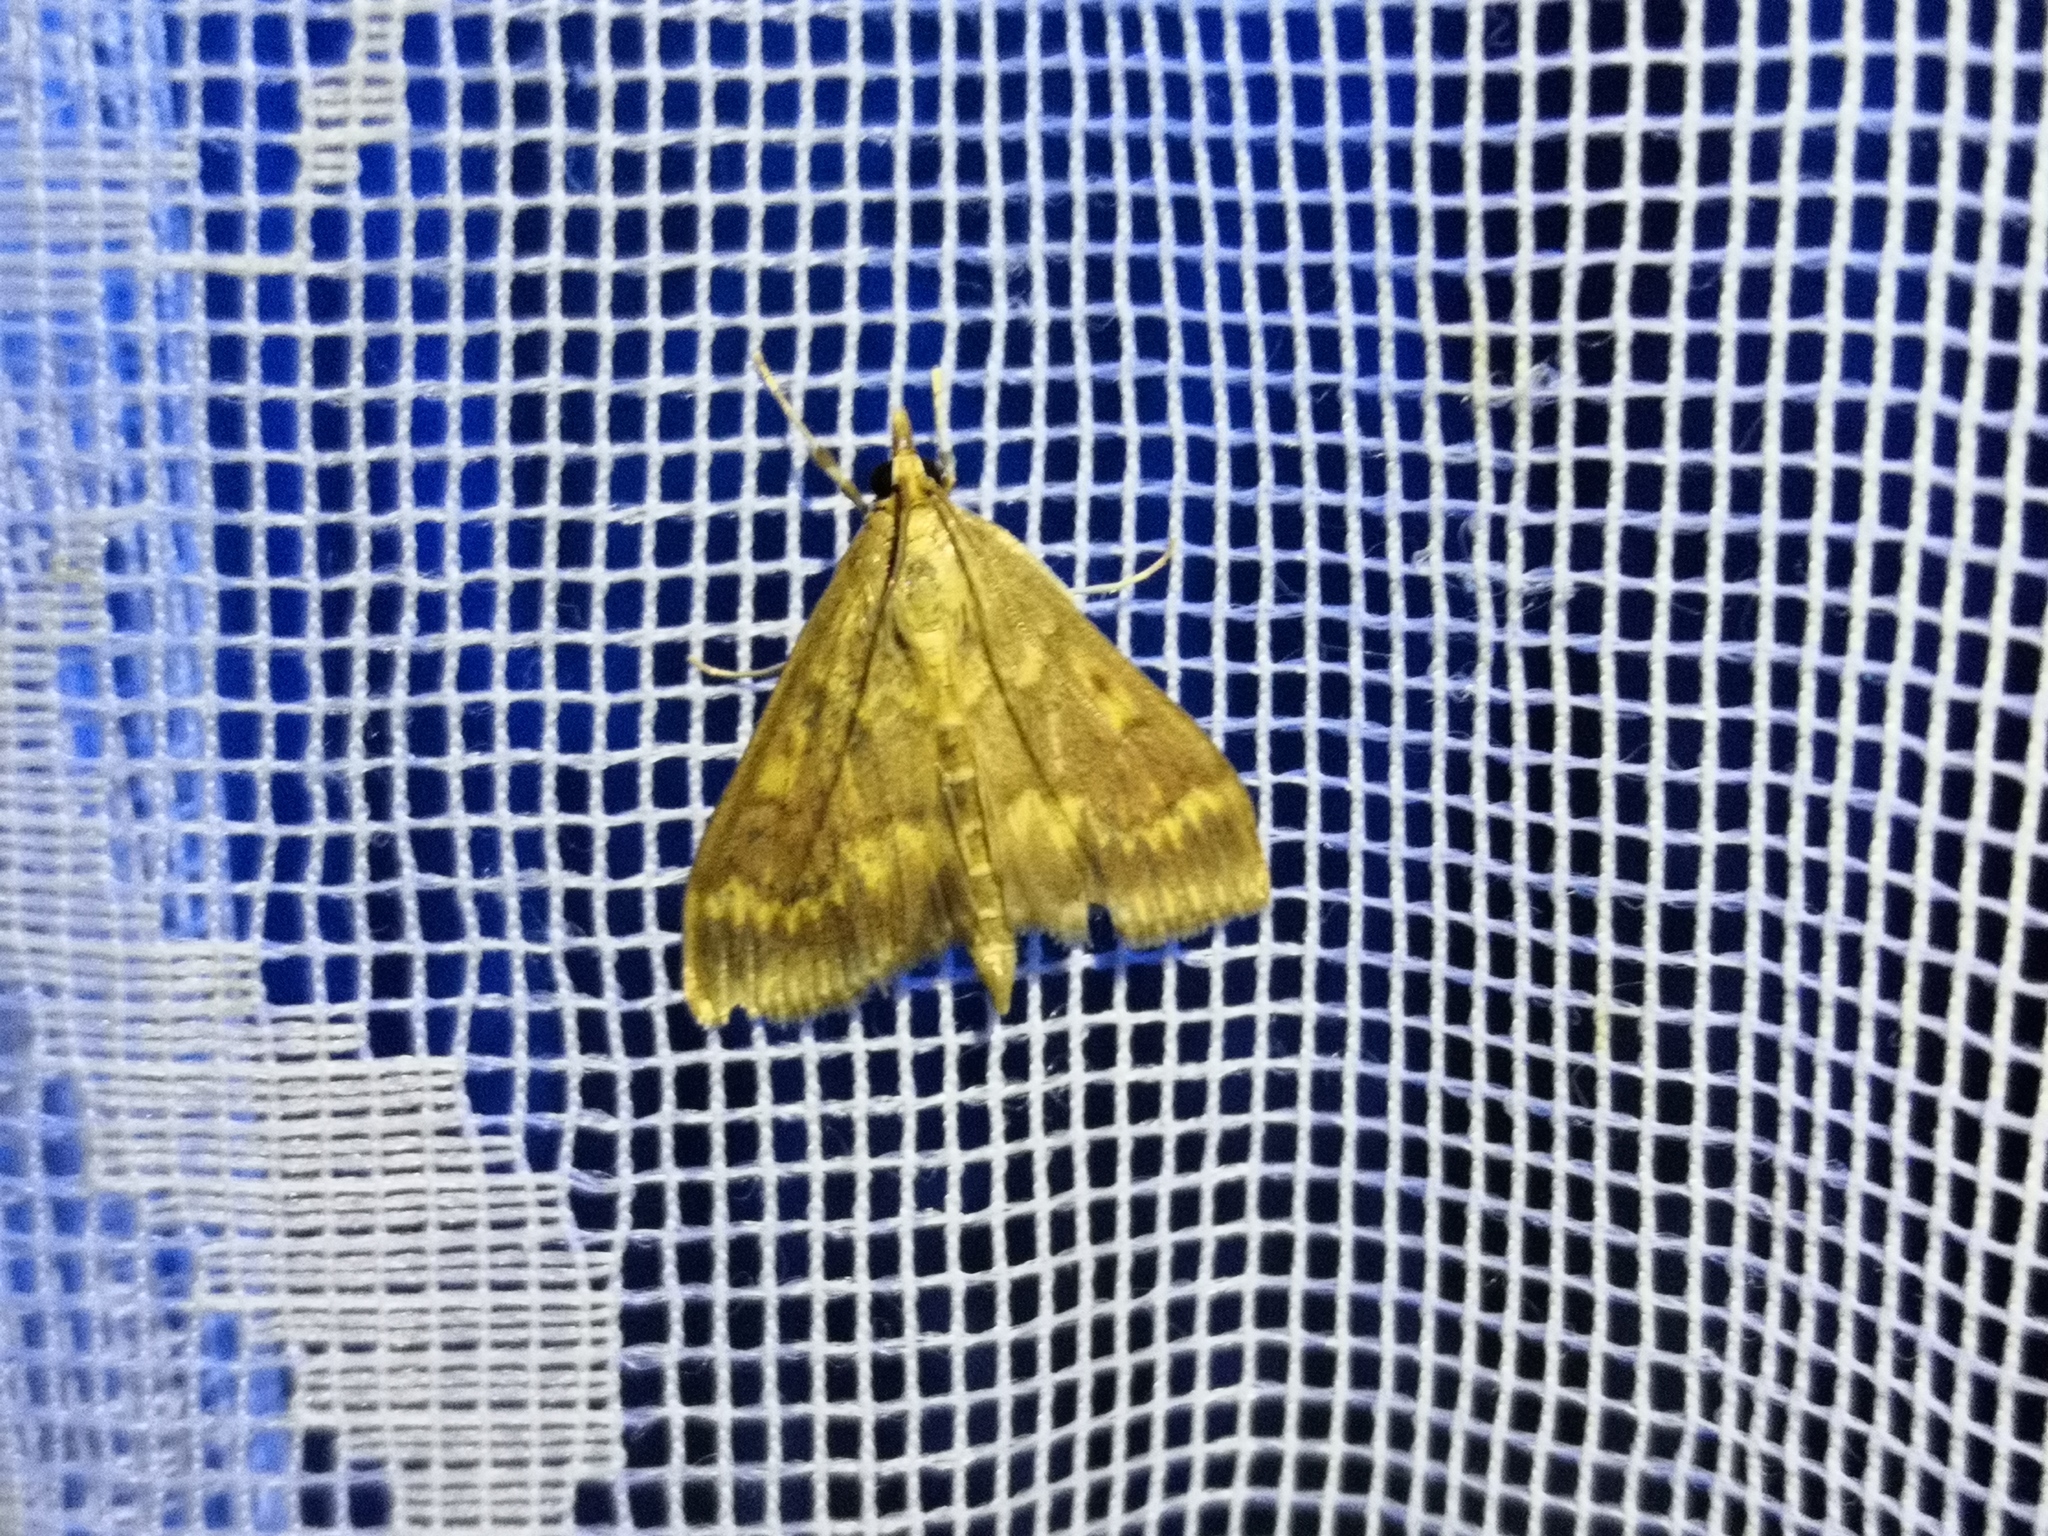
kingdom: Animalia
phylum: Arthropoda
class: Insecta
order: Lepidoptera
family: Crambidae
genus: Ostrinia
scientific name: Ostrinia nubilalis
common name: European corn borer
